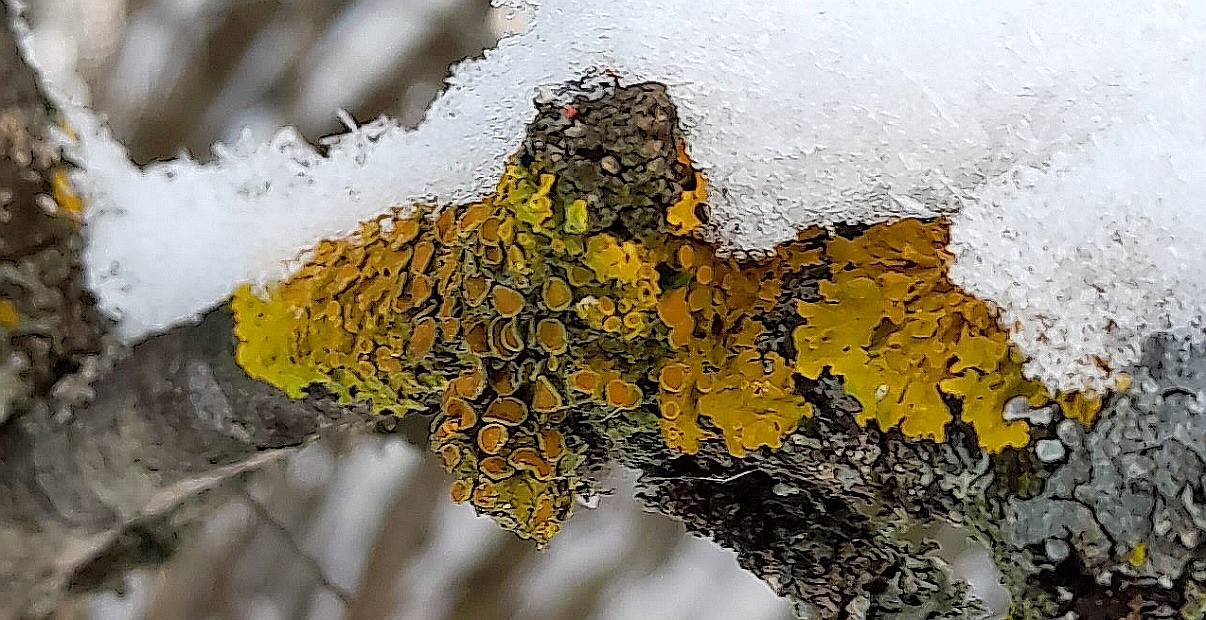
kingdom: Fungi
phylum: Ascomycota
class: Lecanoromycetes
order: Teloschistales
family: Teloschistaceae
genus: Xanthoria
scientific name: Xanthoria parietina
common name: Common orange lichen
